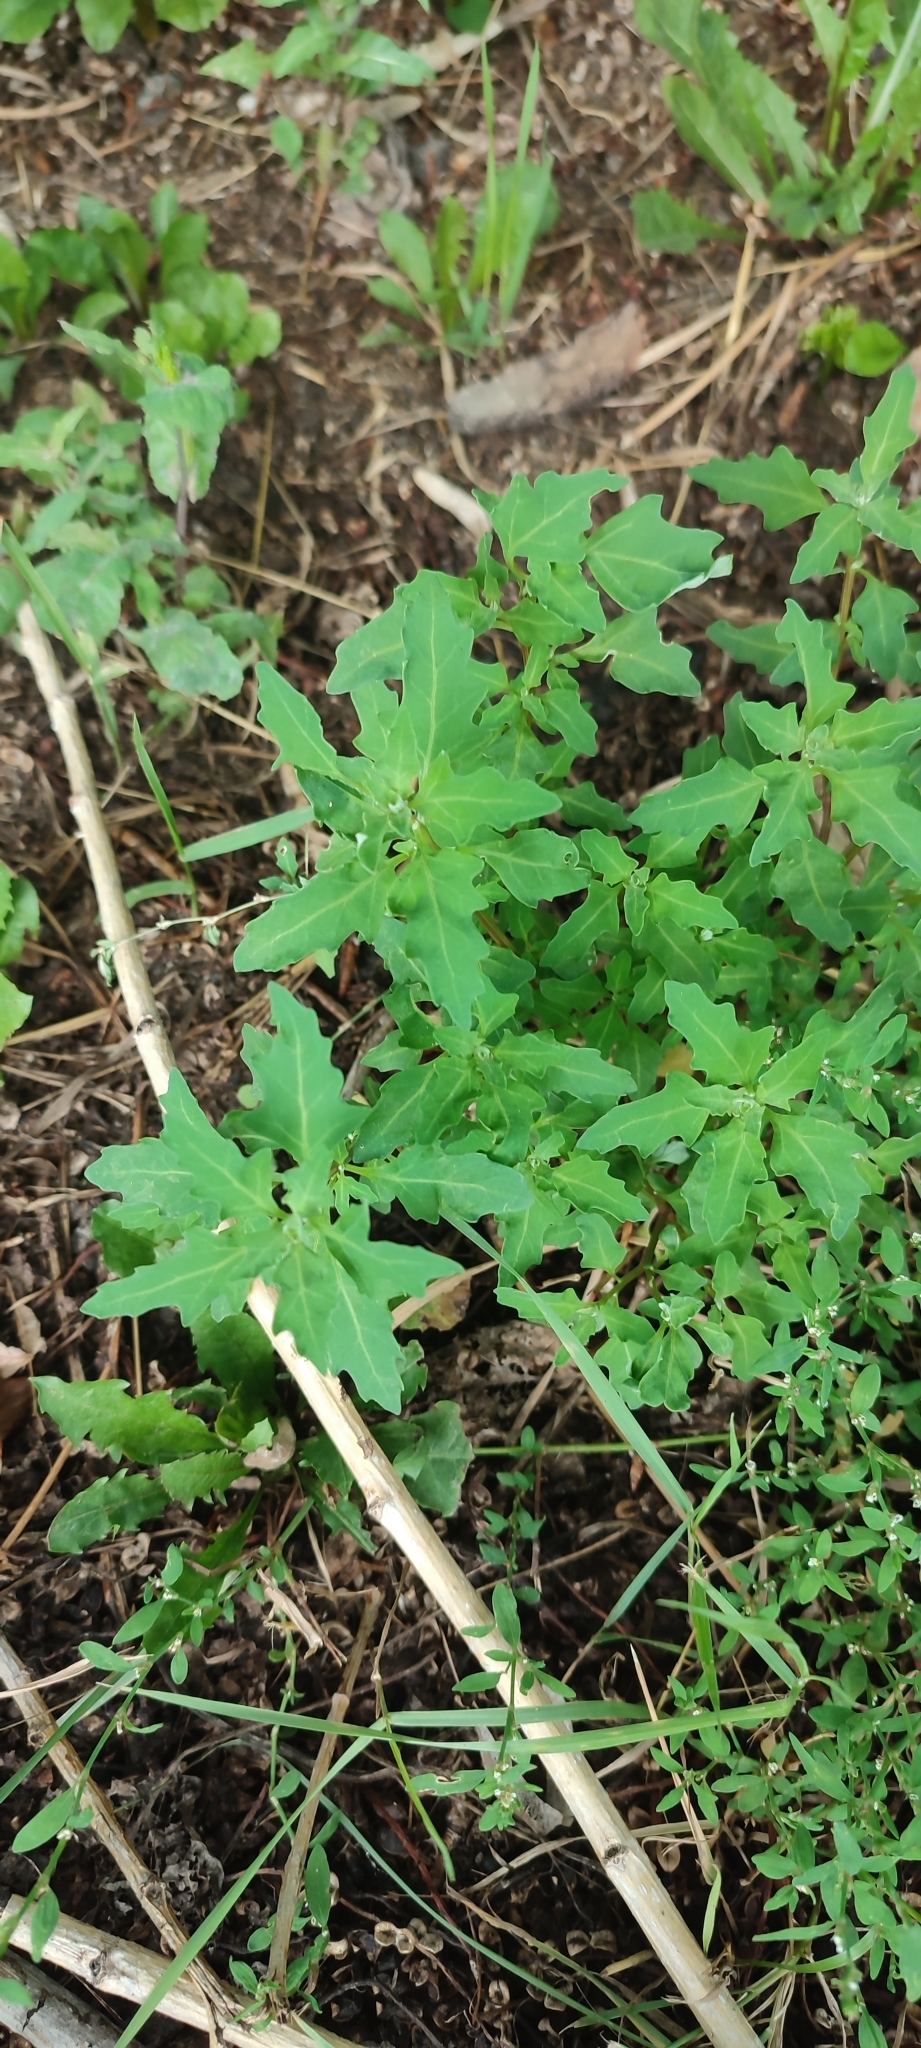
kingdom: Plantae
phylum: Tracheophyta
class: Magnoliopsida
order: Caryophyllales
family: Amaranthaceae
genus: Oxybasis
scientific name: Oxybasis glauca
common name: Glaucous goosefoot
